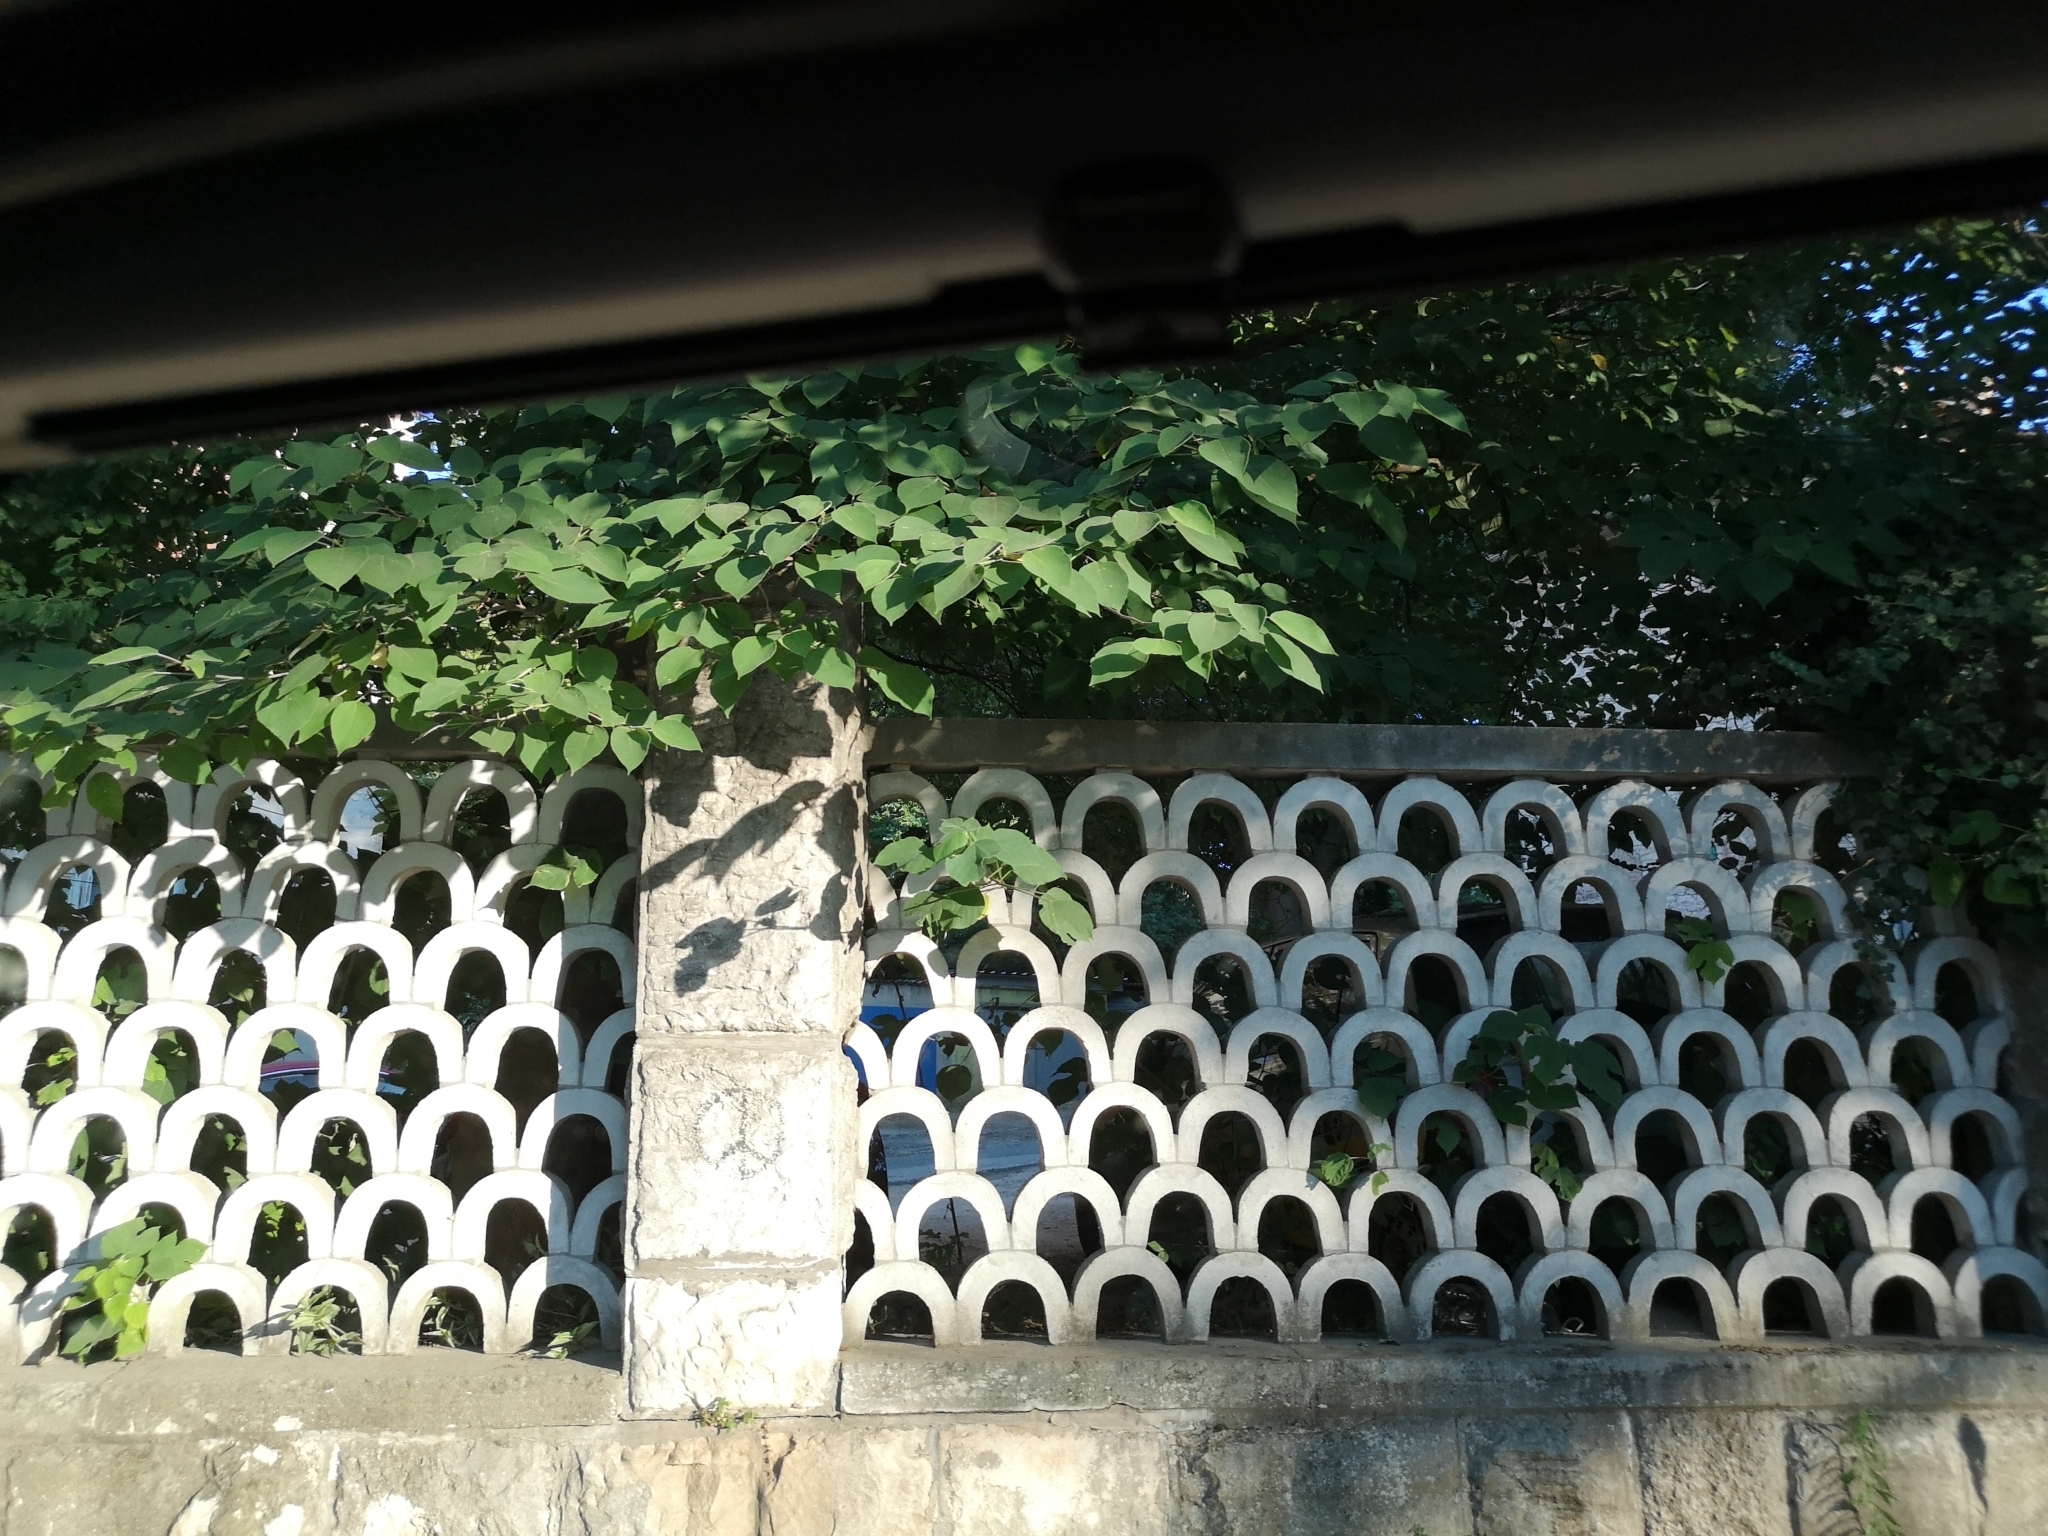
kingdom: Plantae
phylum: Tracheophyta
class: Magnoliopsida
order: Rosales
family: Moraceae
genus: Broussonetia
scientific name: Broussonetia papyrifera
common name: Paper mulberry
